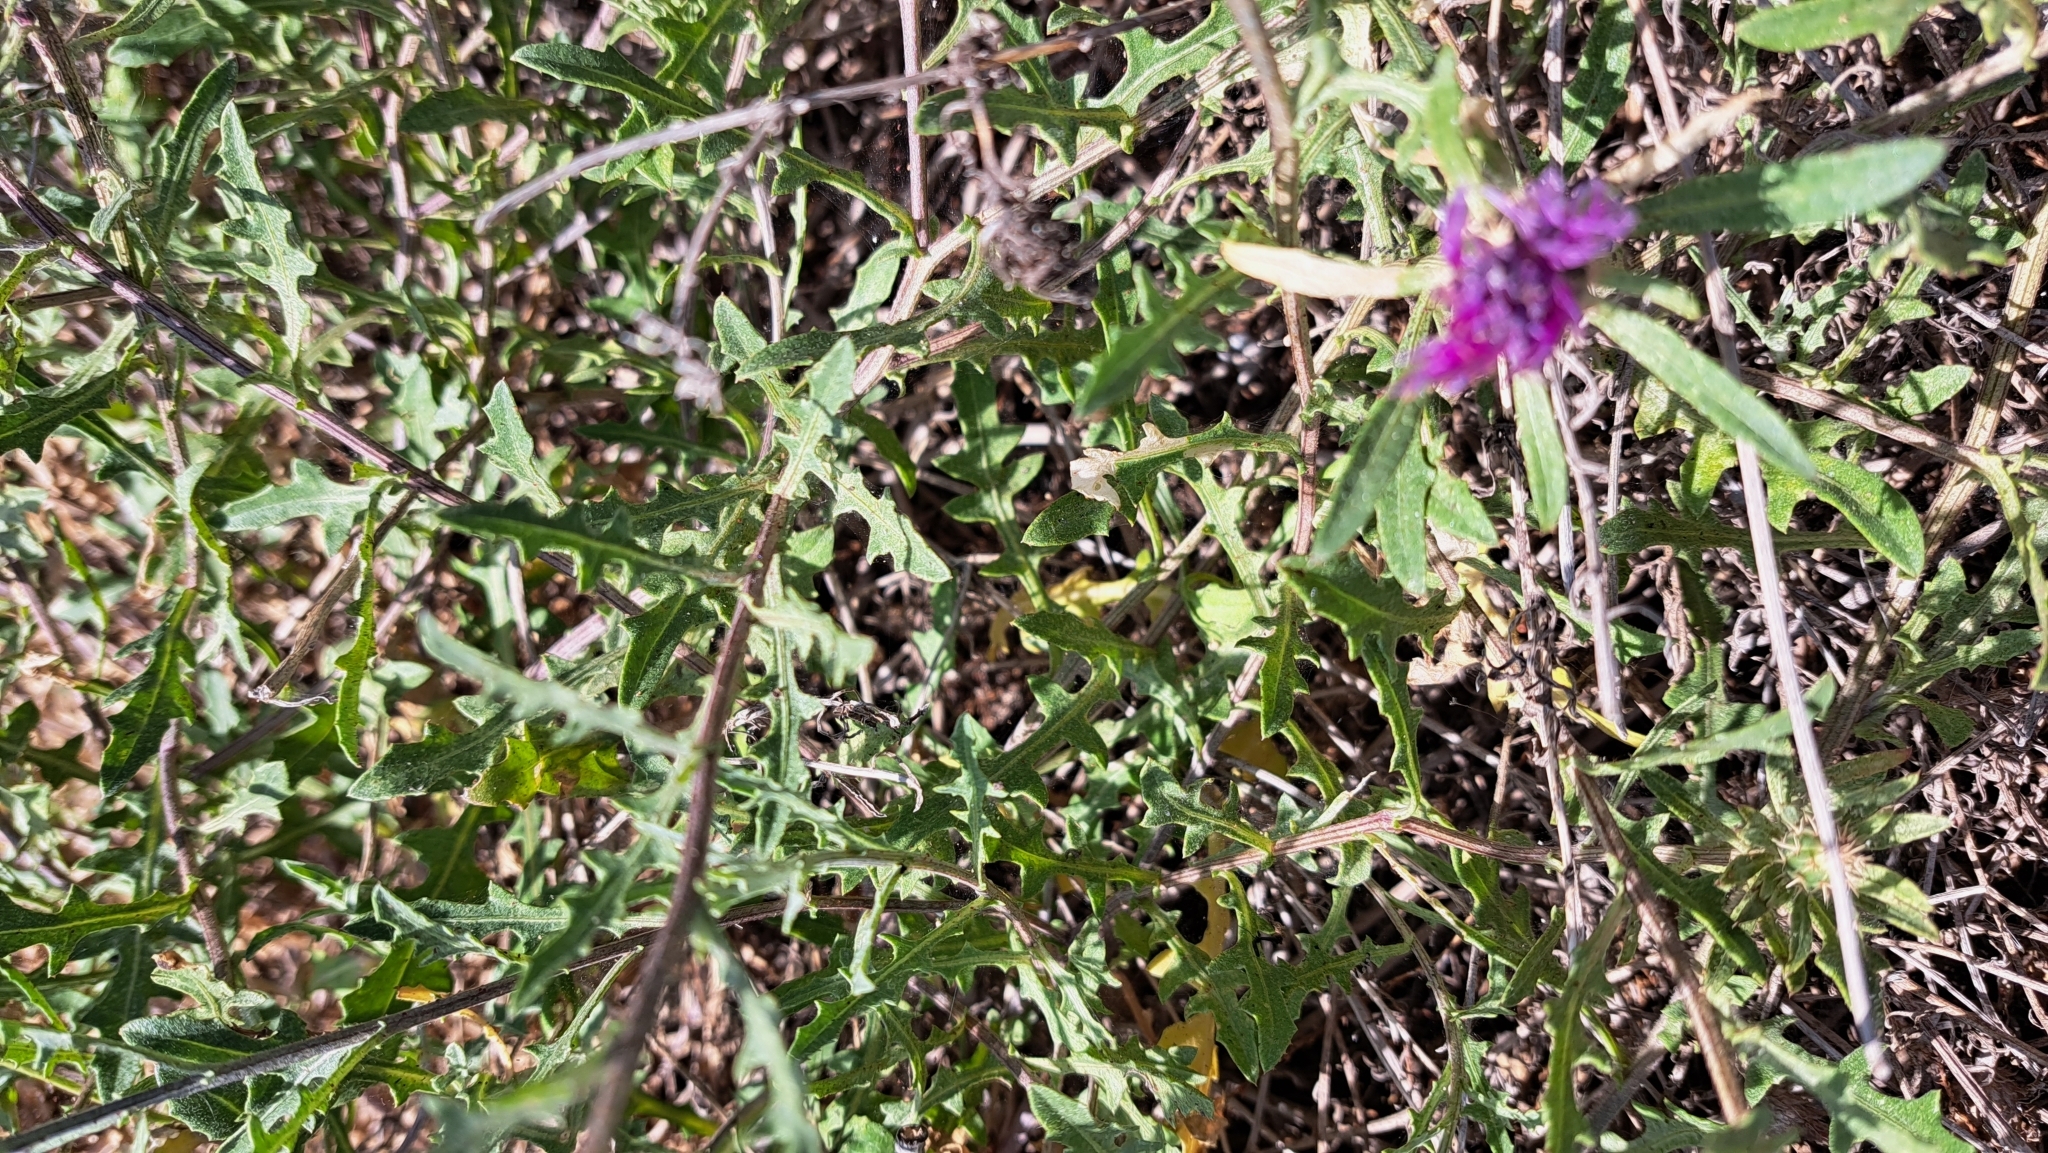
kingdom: Plantae
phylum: Tracheophyta
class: Magnoliopsida
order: Asterales
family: Asteraceae
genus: Centaurea
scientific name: Centaurea aspera
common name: Rough star-thistle
